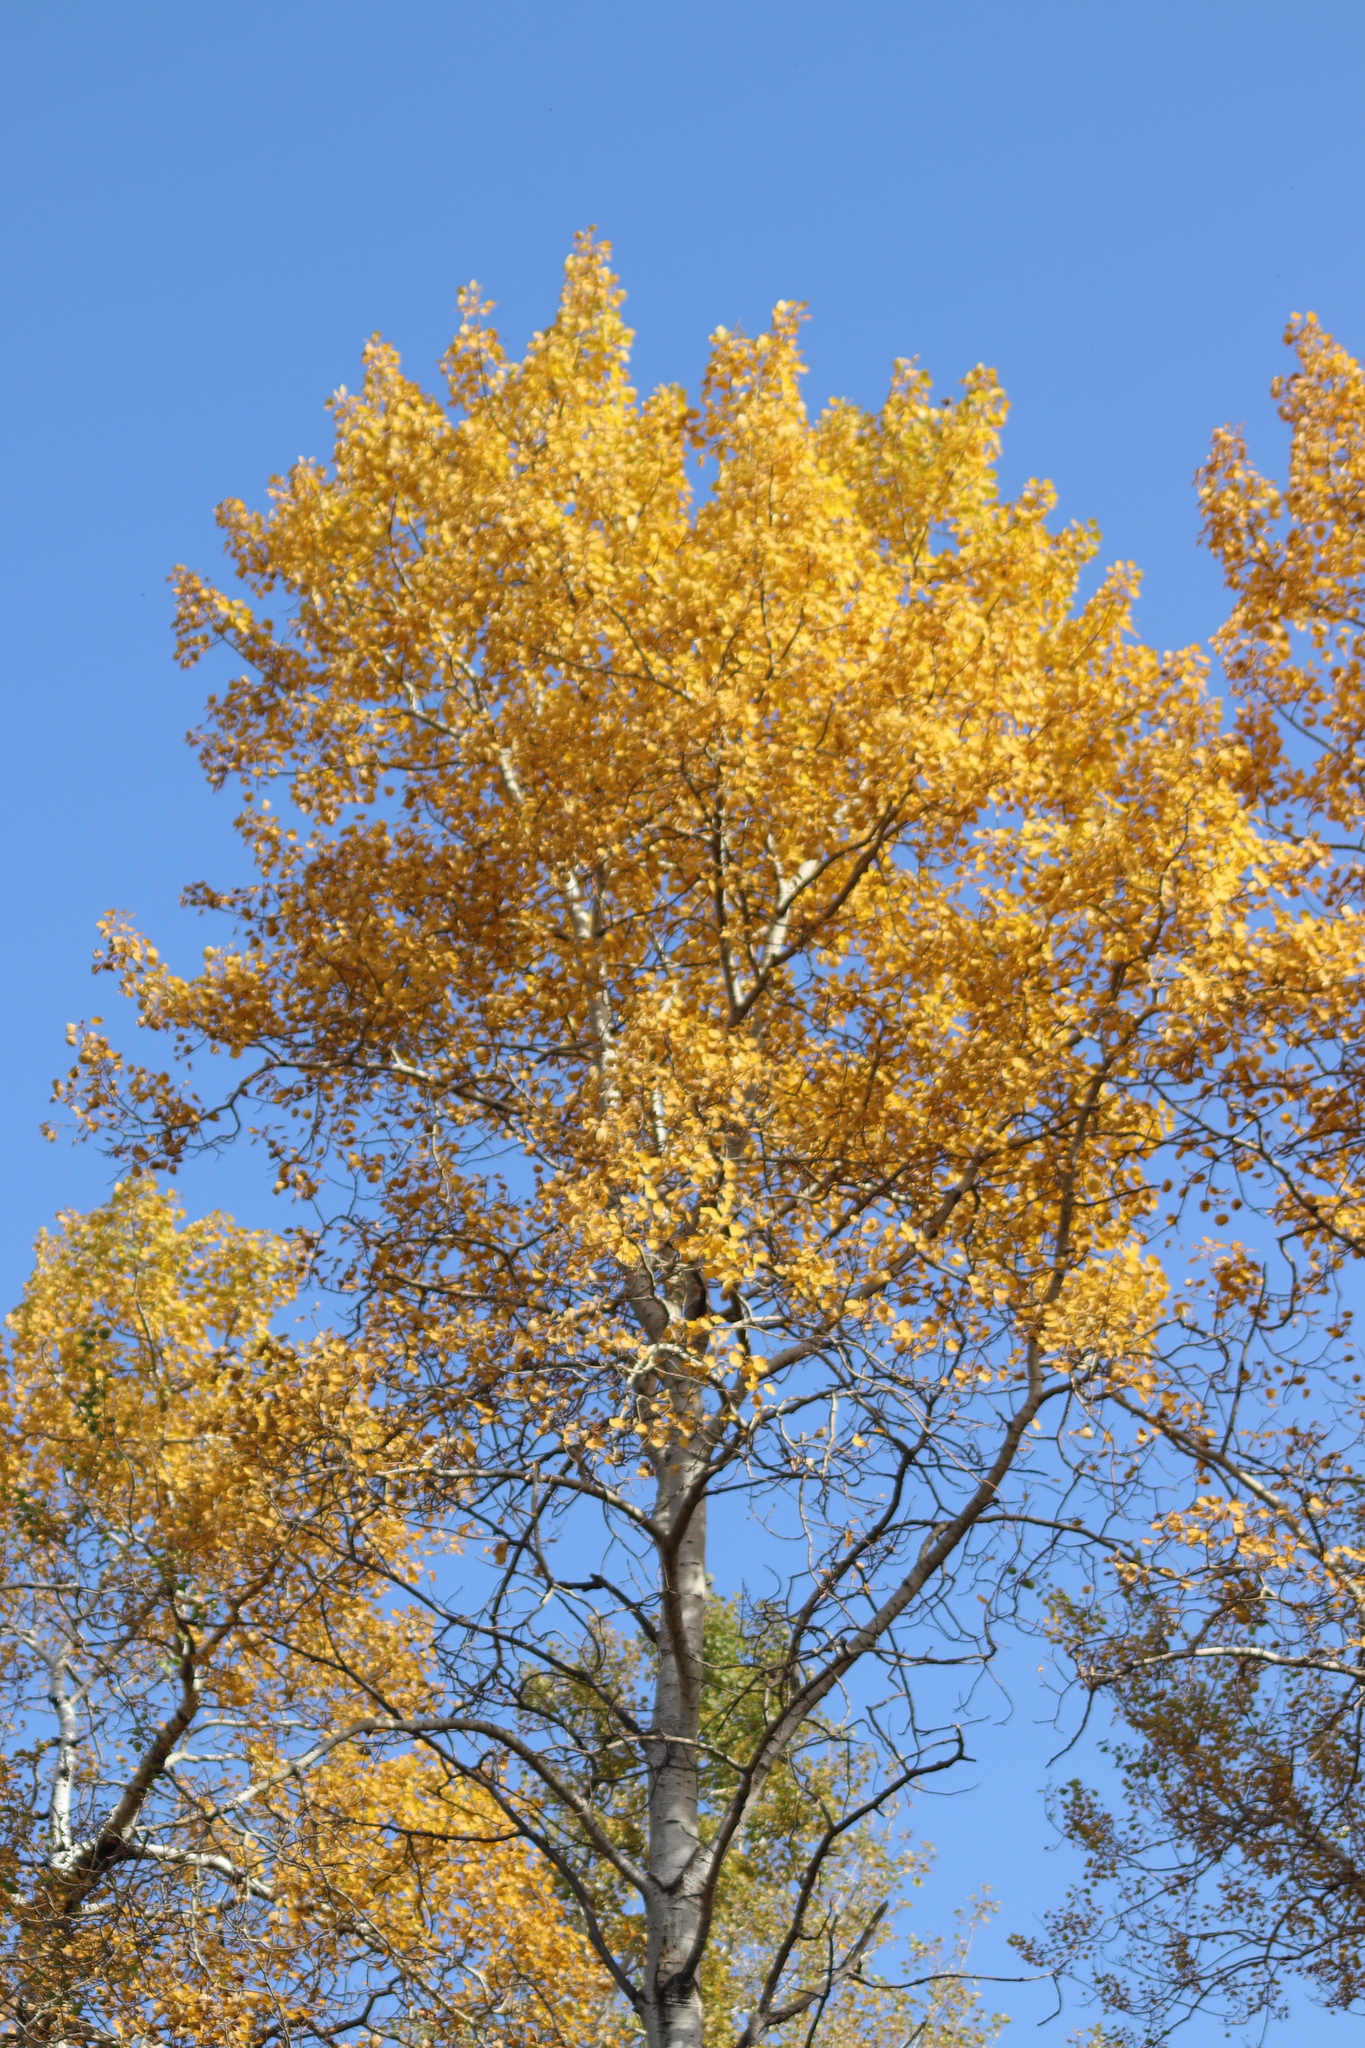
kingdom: Plantae
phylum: Tracheophyta
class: Magnoliopsida
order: Malpighiales
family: Salicaceae
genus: Populus
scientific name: Populus tremuloides
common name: Quaking aspen
